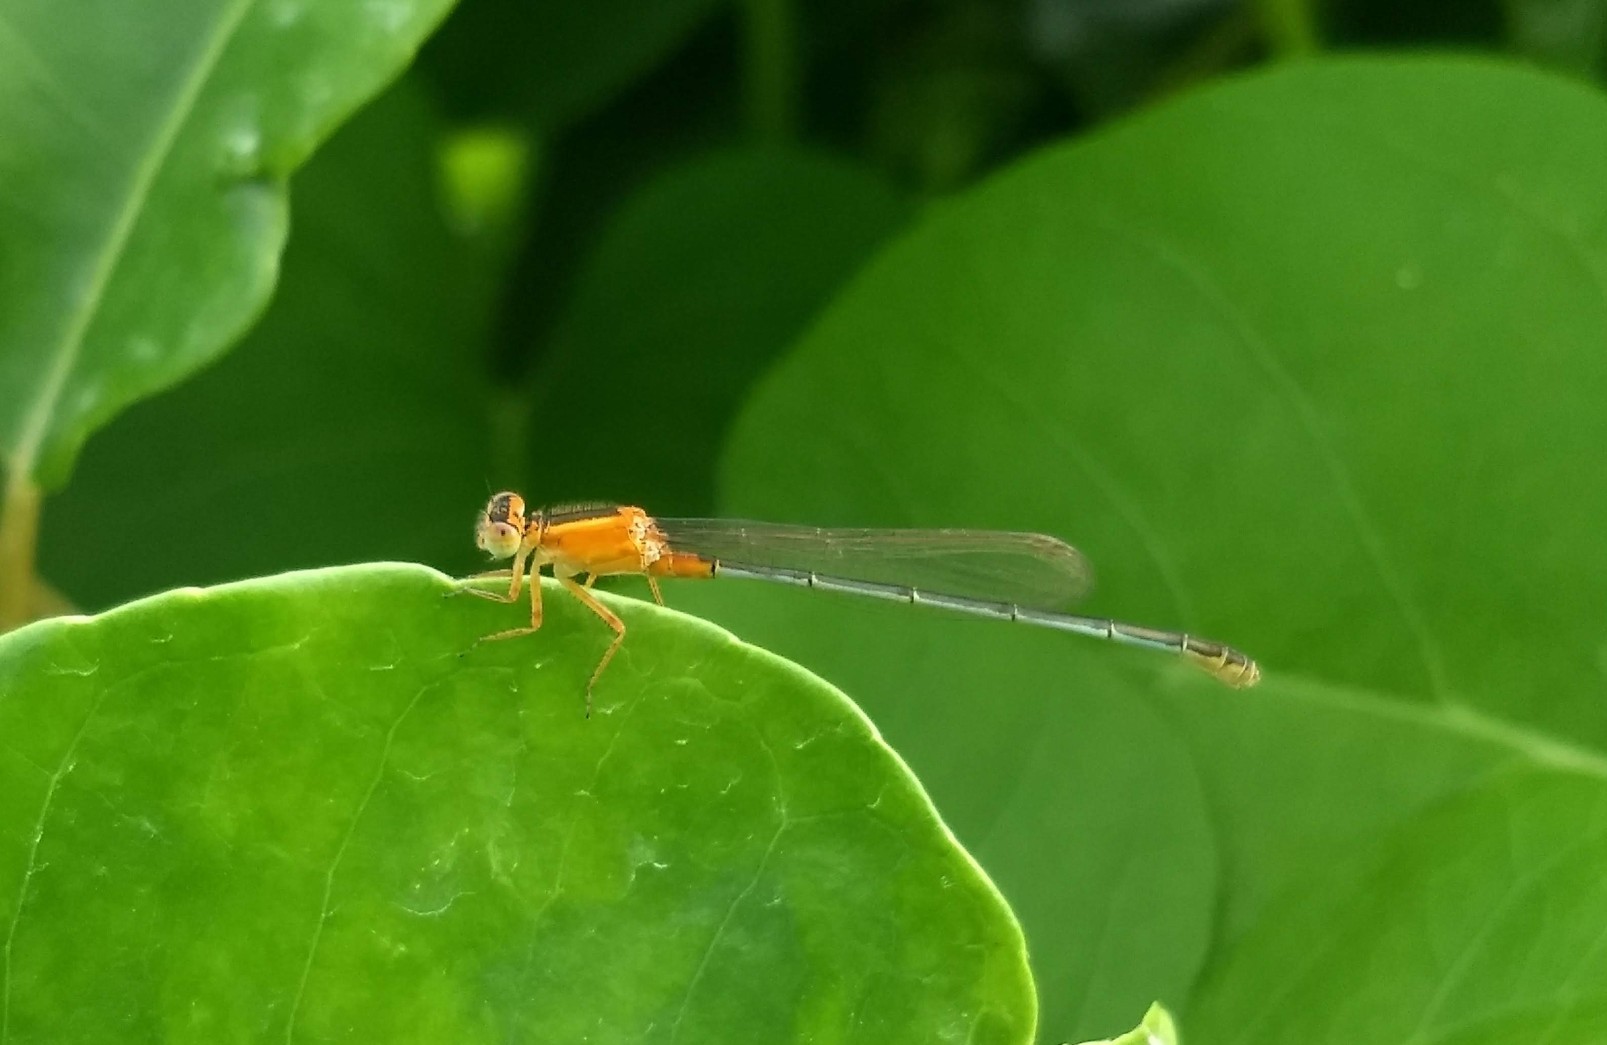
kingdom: Animalia
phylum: Arthropoda
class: Insecta
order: Odonata
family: Coenagrionidae
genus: Ischnura
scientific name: Ischnura senegalensis
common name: Tropical bluetail
